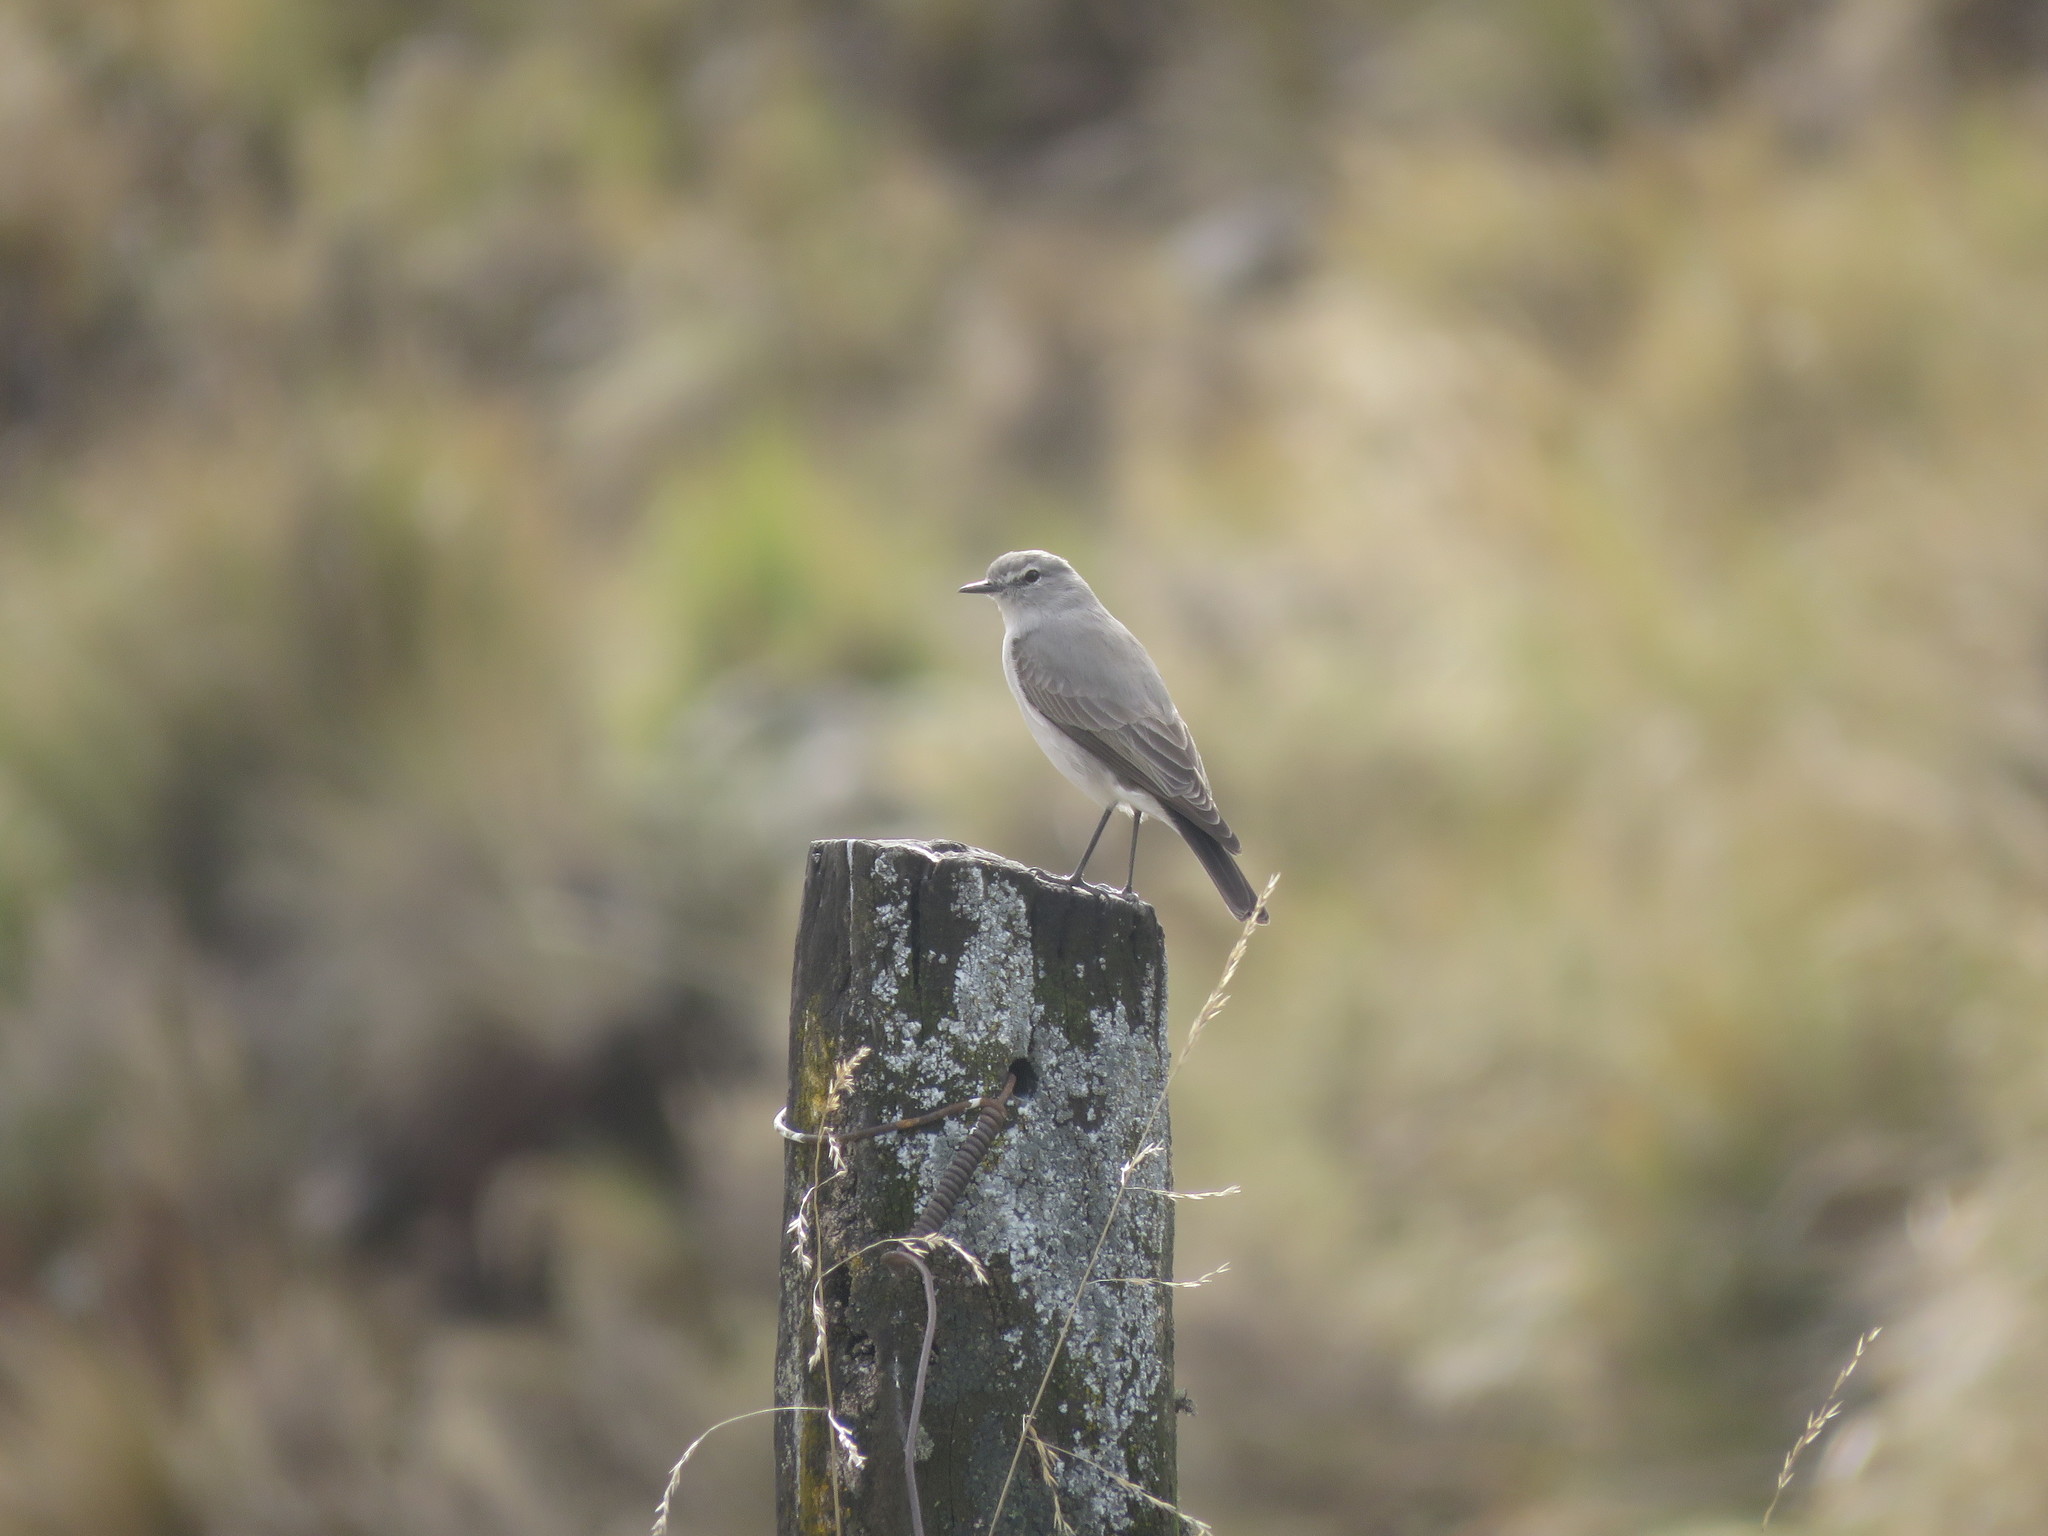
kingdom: Animalia
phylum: Chordata
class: Aves
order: Passeriformes
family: Tyrannidae
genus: Muscisaxicola
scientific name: Muscisaxicola cinereus
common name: Cinereous ground tyrant
